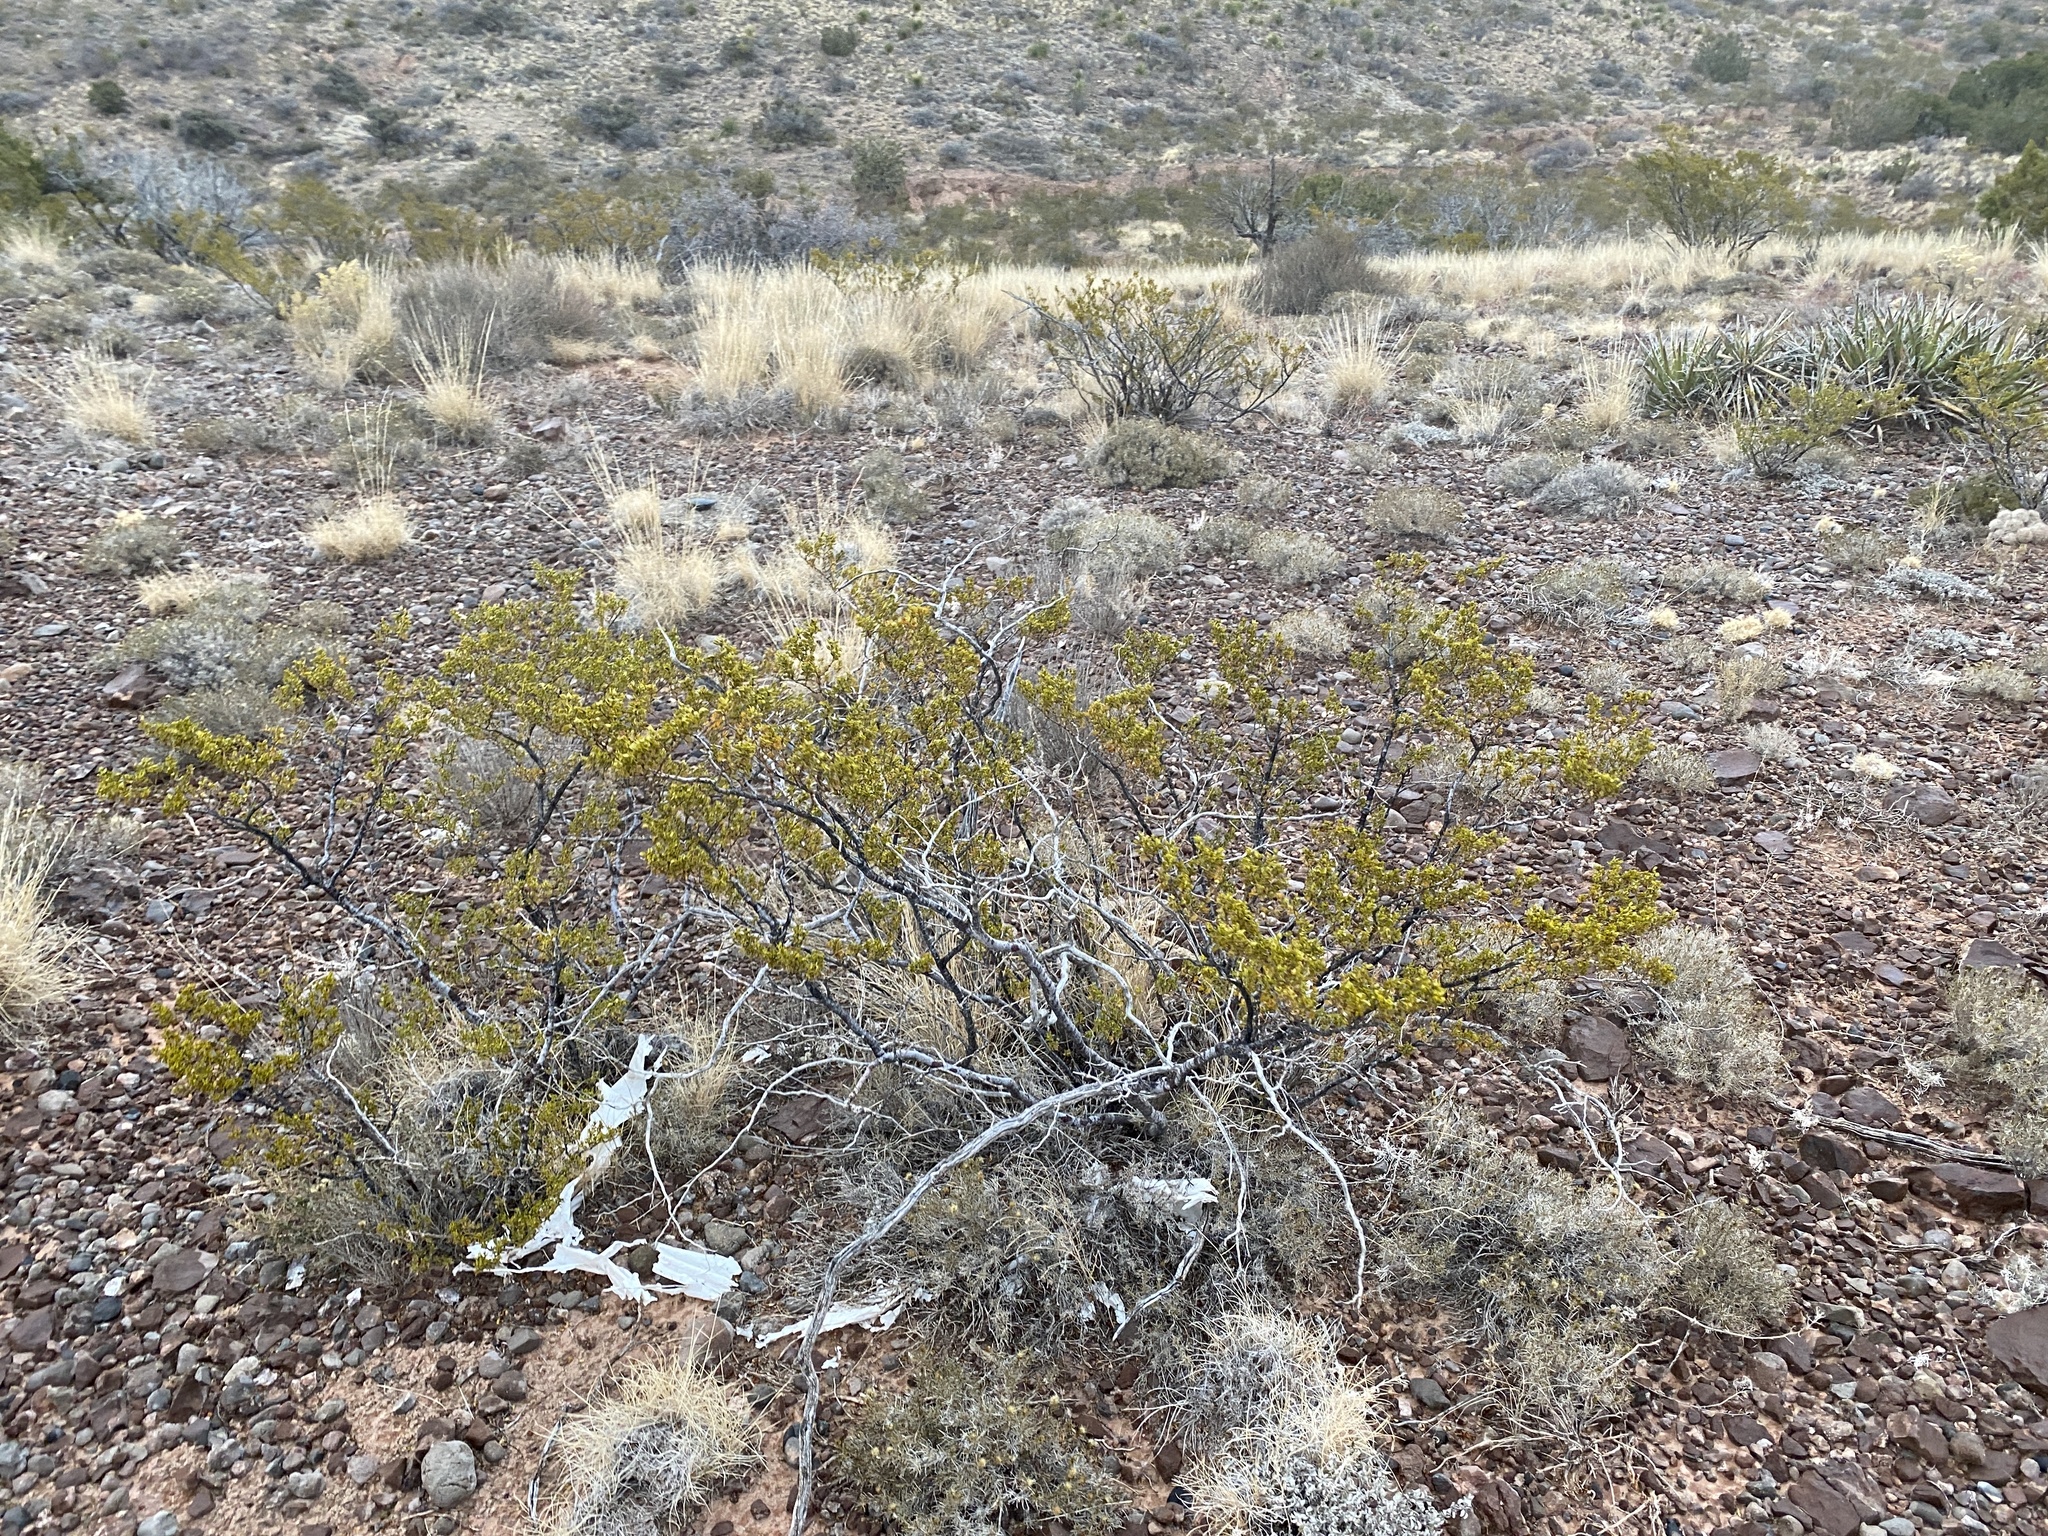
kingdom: Plantae
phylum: Tracheophyta
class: Magnoliopsida
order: Zygophyllales
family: Zygophyllaceae
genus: Larrea
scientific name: Larrea tridentata
